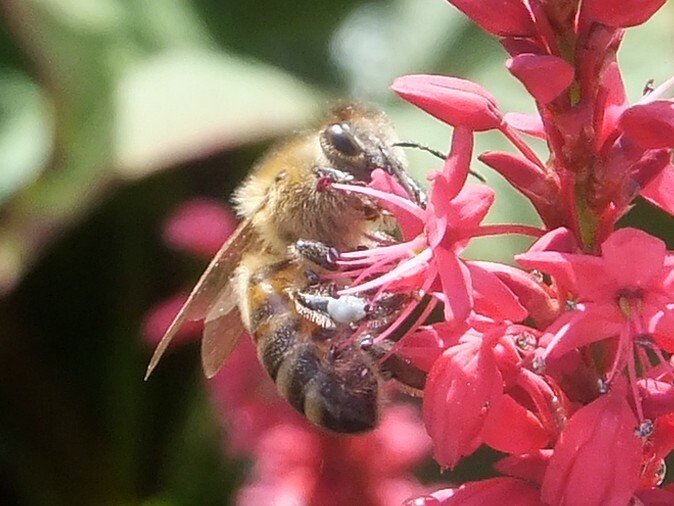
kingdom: Animalia
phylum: Arthropoda
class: Insecta
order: Hymenoptera
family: Apidae
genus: Apis
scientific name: Apis mellifera
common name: Honey bee
